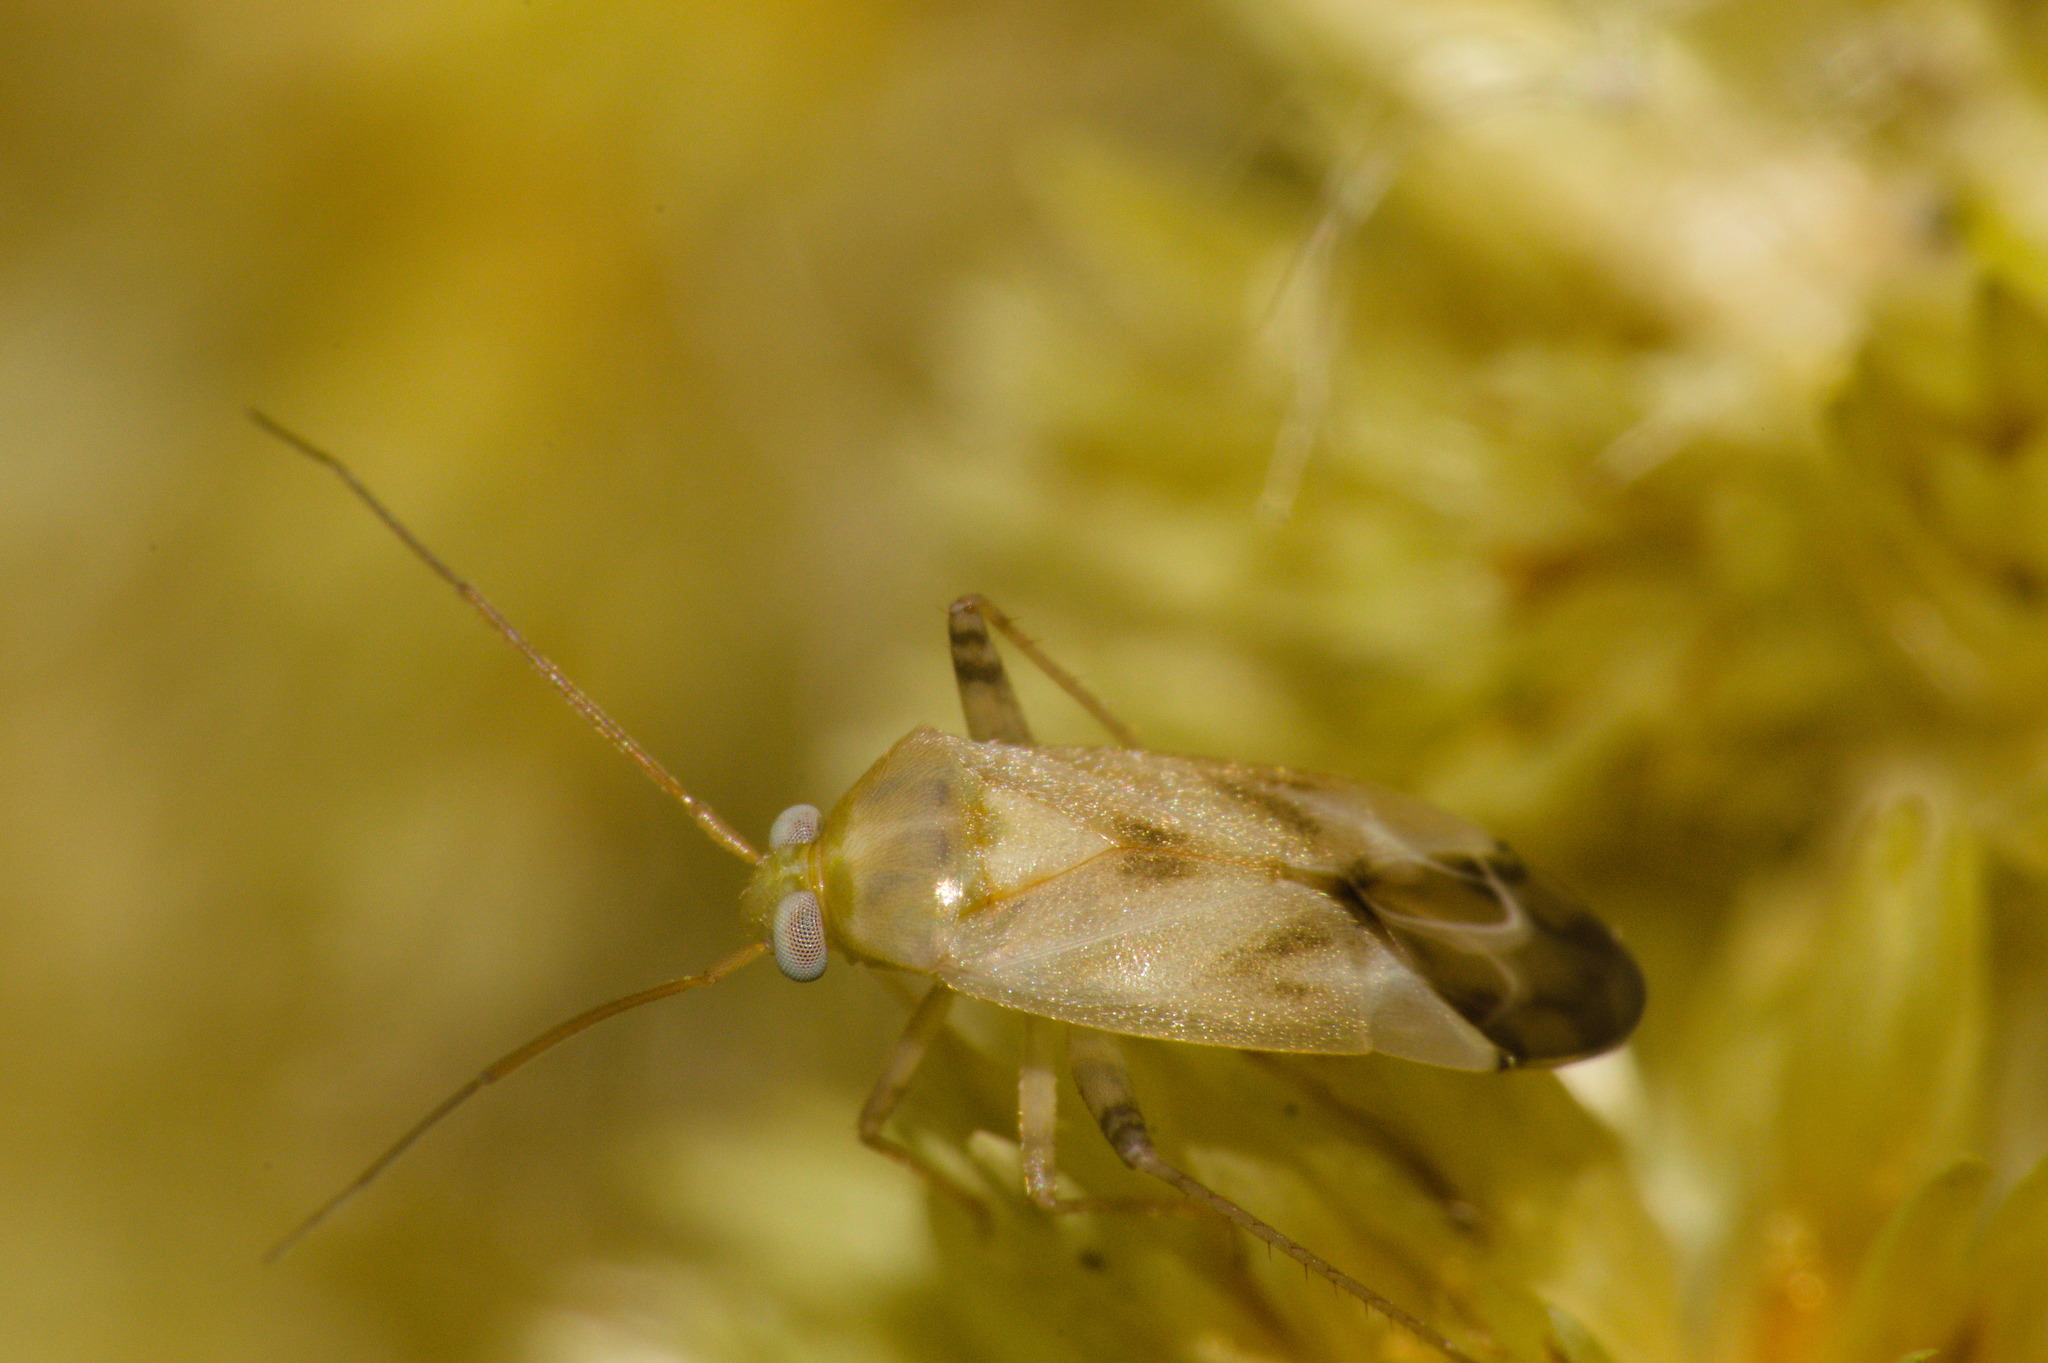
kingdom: Animalia
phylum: Arthropoda
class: Insecta
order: Hemiptera
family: Miridae
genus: Taylorilygus
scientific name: Taylorilygus apicalis
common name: Plant bug
